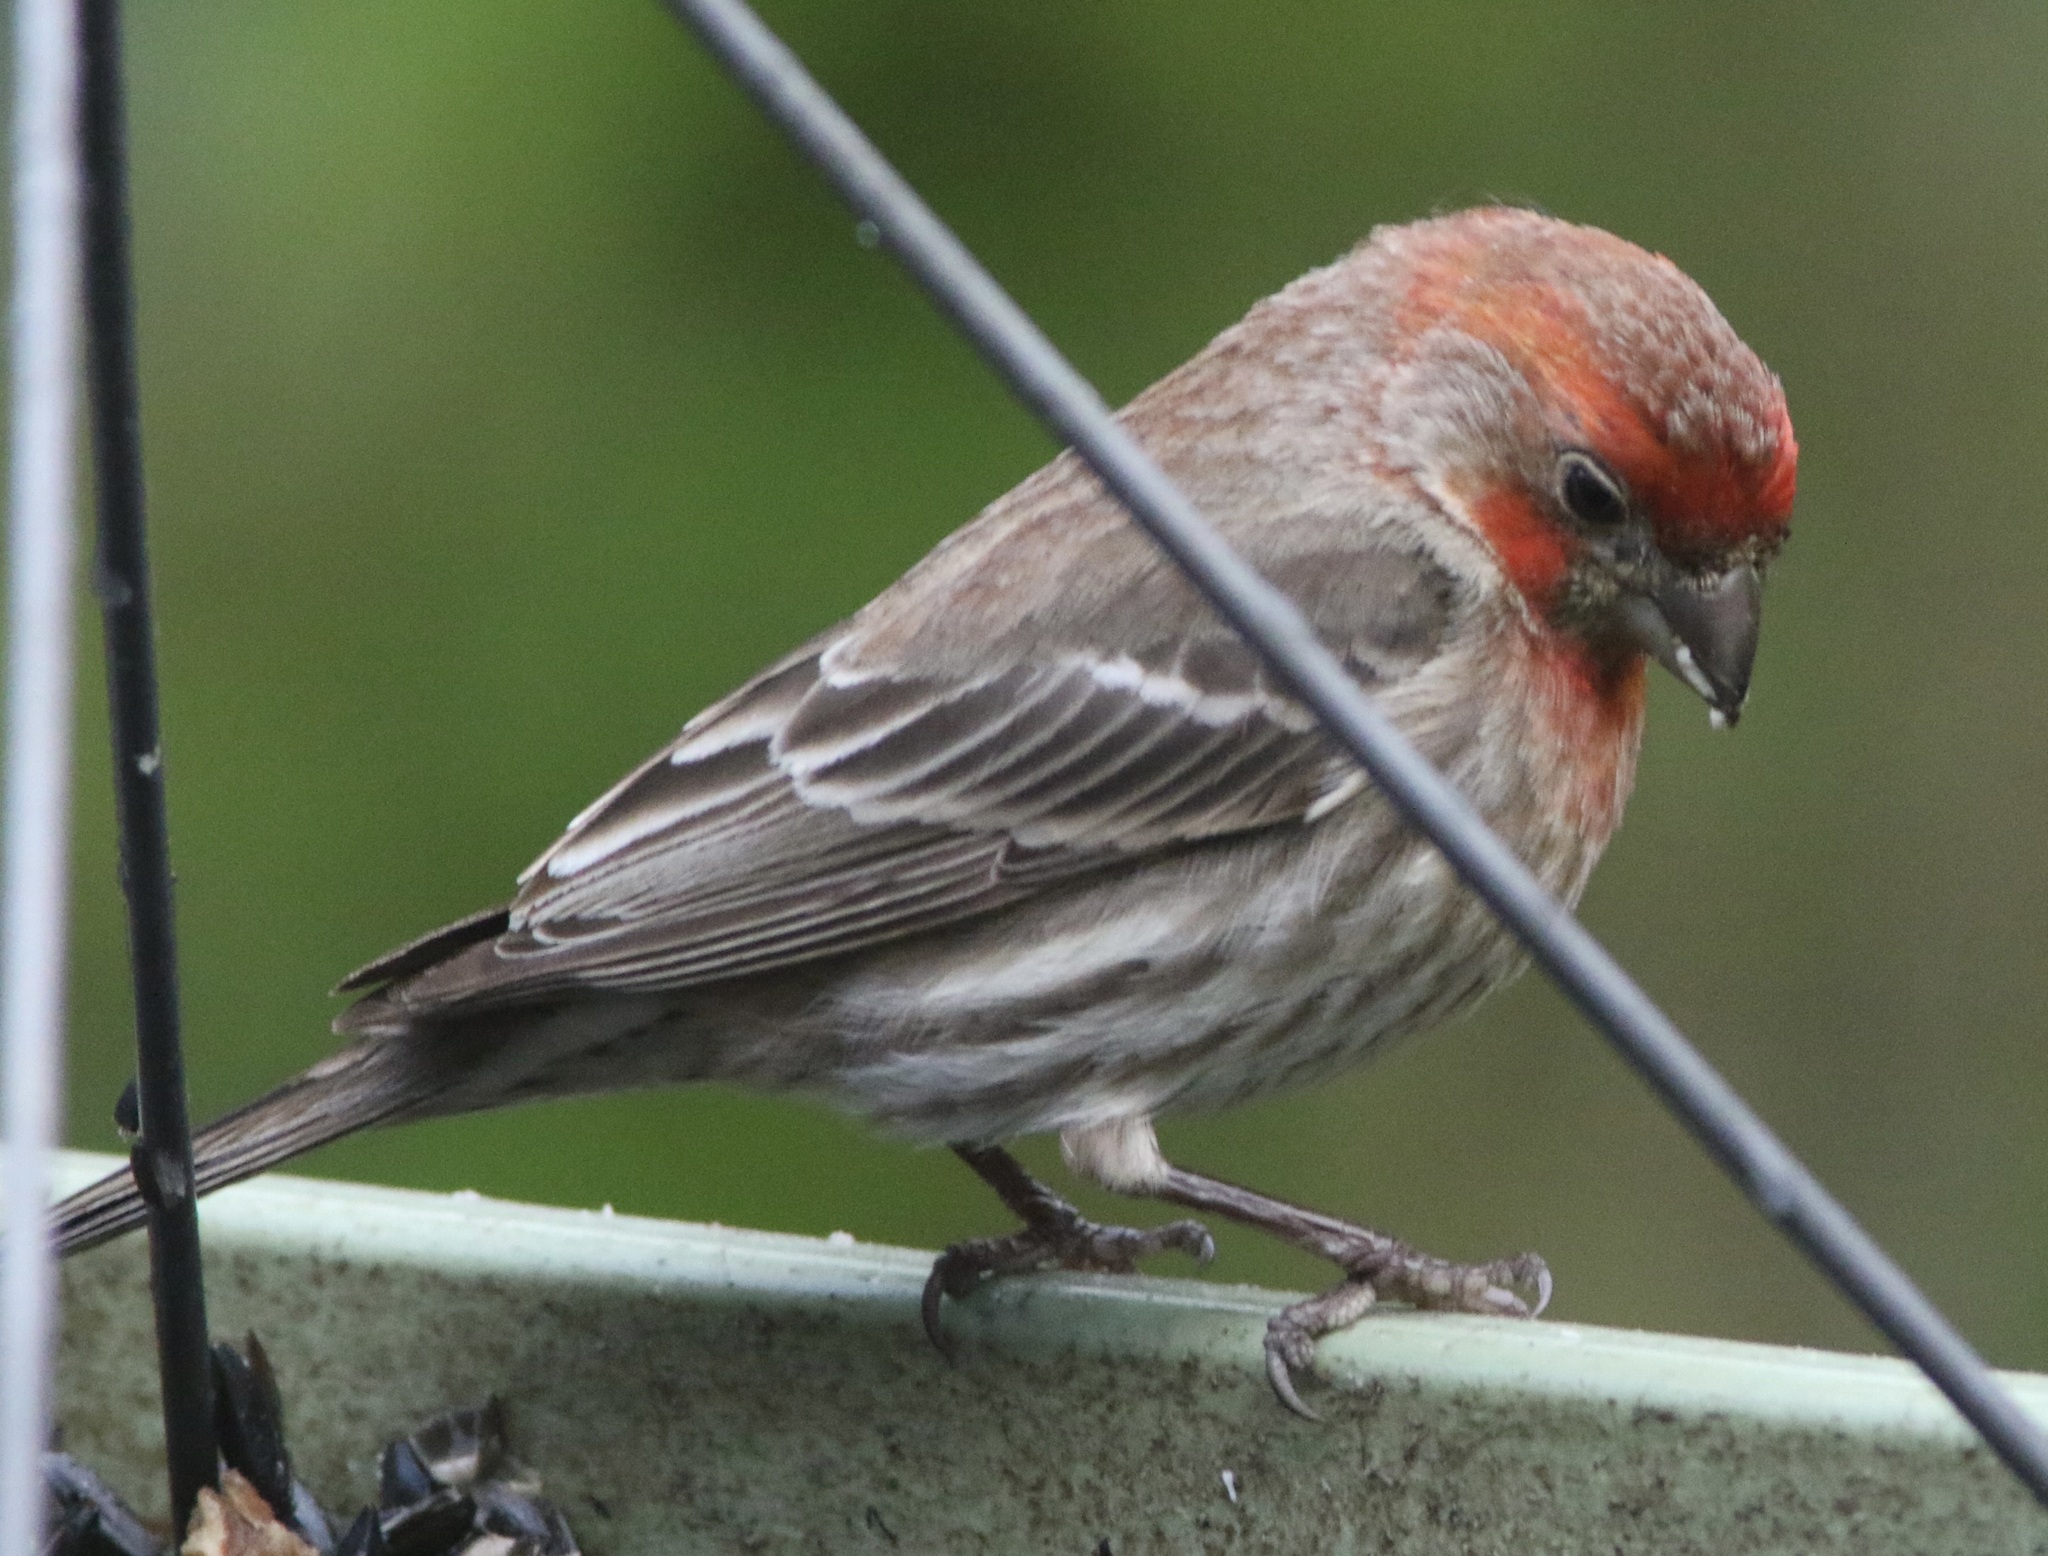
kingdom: Animalia
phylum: Chordata
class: Aves
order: Passeriformes
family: Fringillidae
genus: Haemorhous
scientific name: Haemorhous mexicanus
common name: House finch
